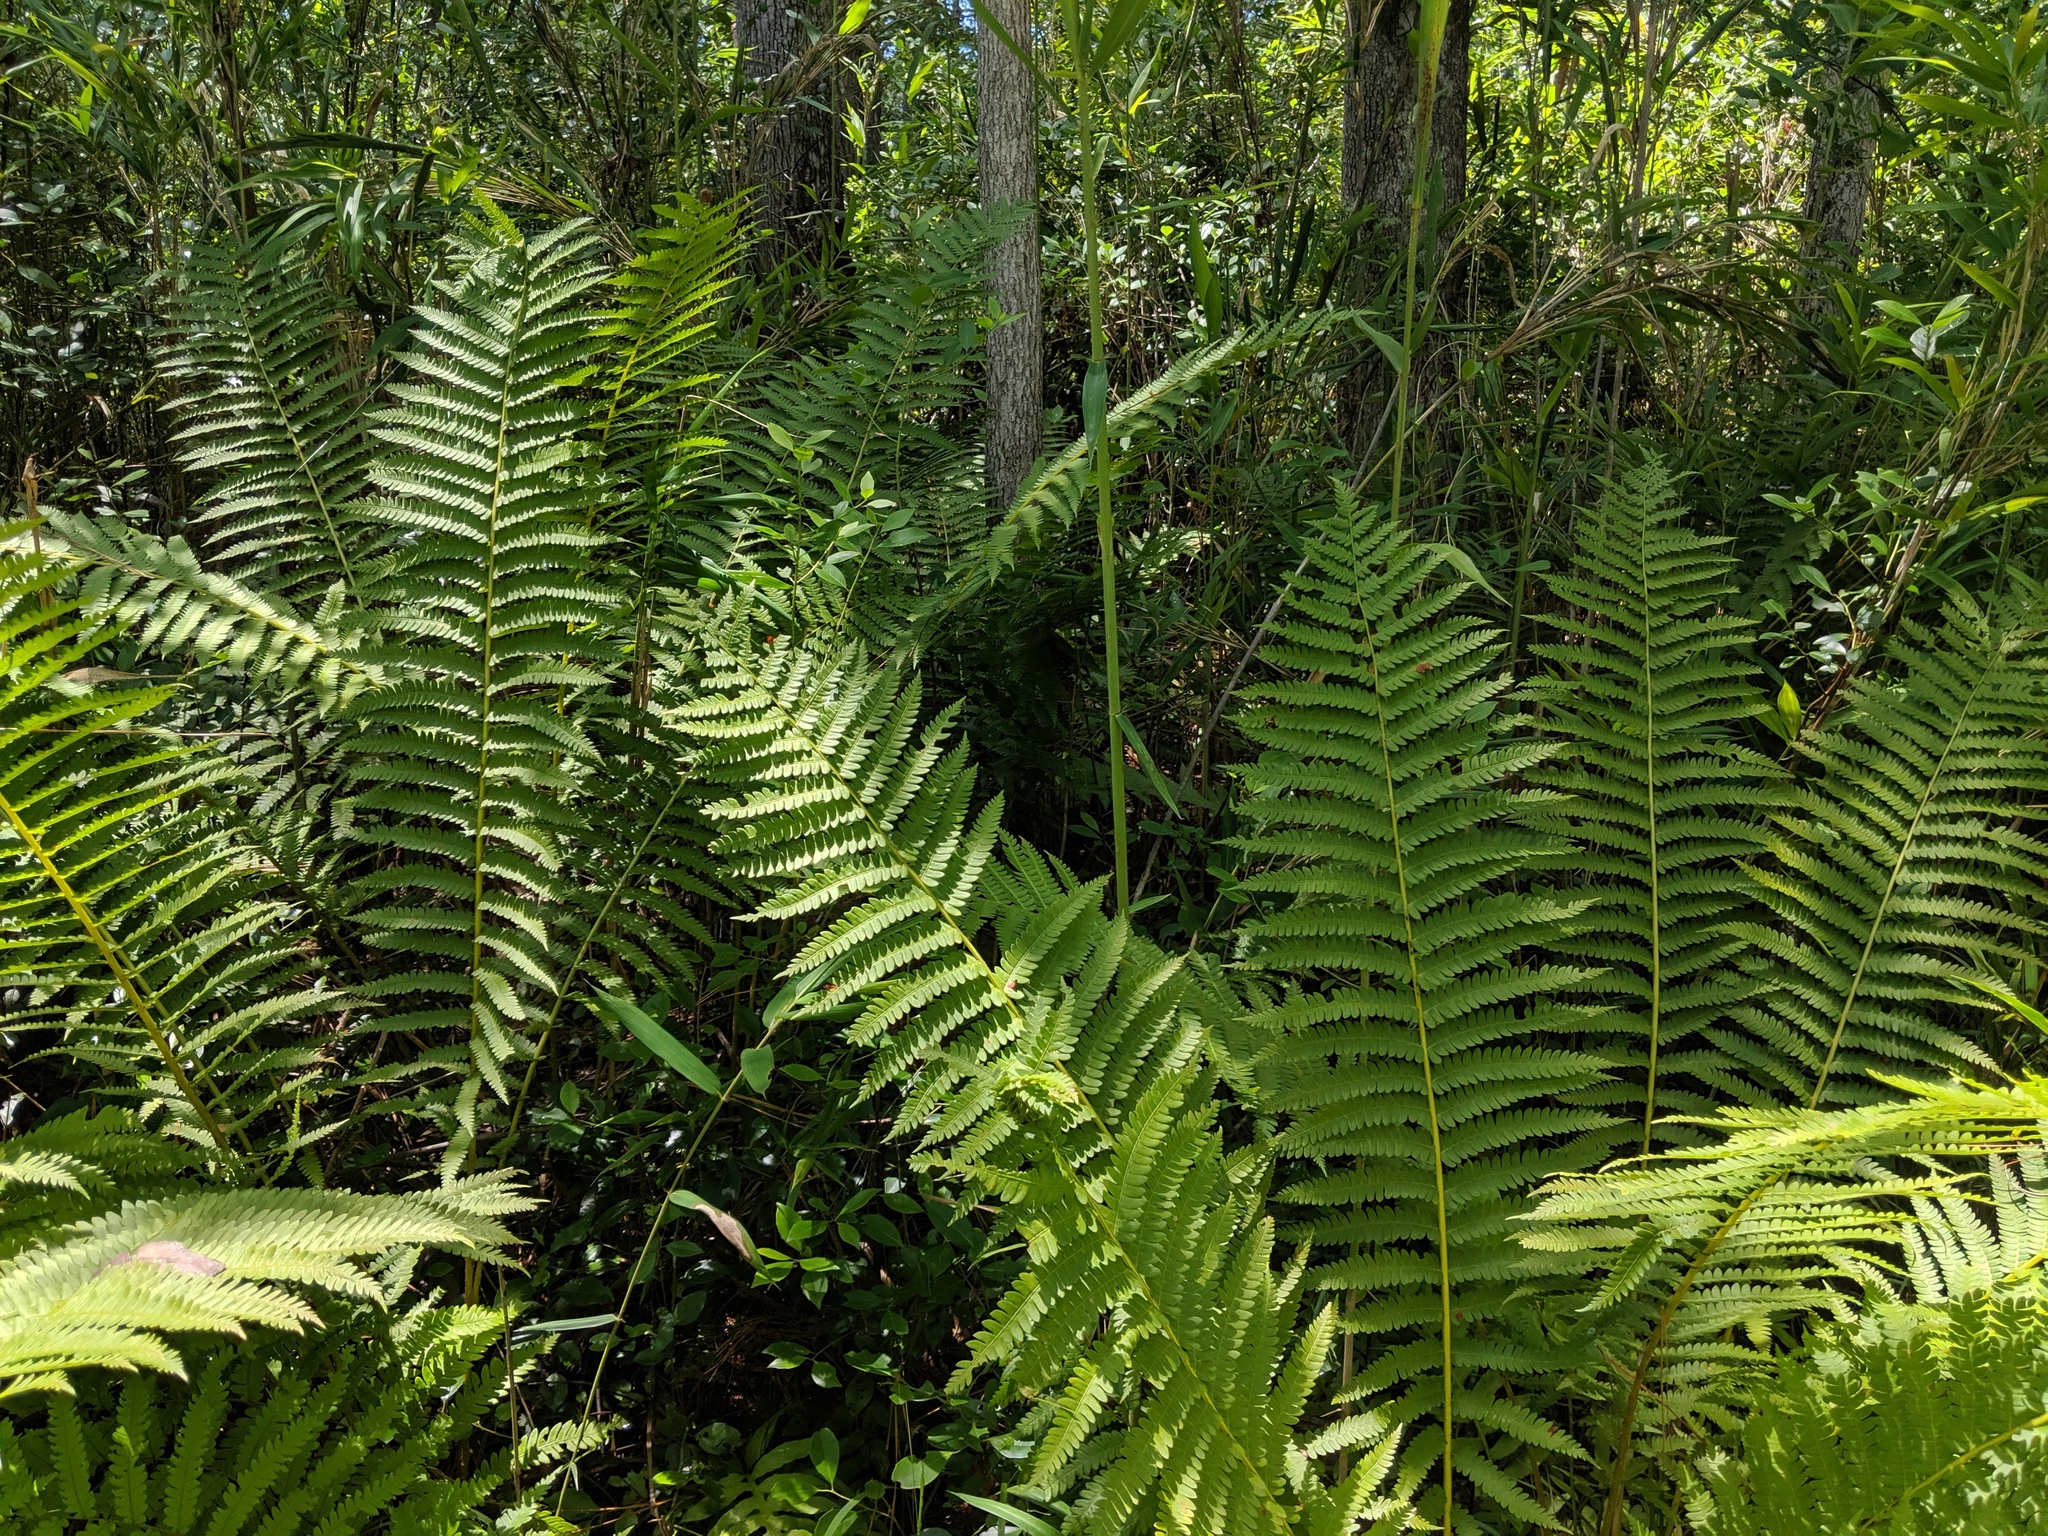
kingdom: Plantae
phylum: Tracheophyta
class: Polypodiopsida
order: Osmundales
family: Osmundaceae
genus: Osmundastrum
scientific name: Osmundastrum cinnamomeum
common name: Cinnamon fern
